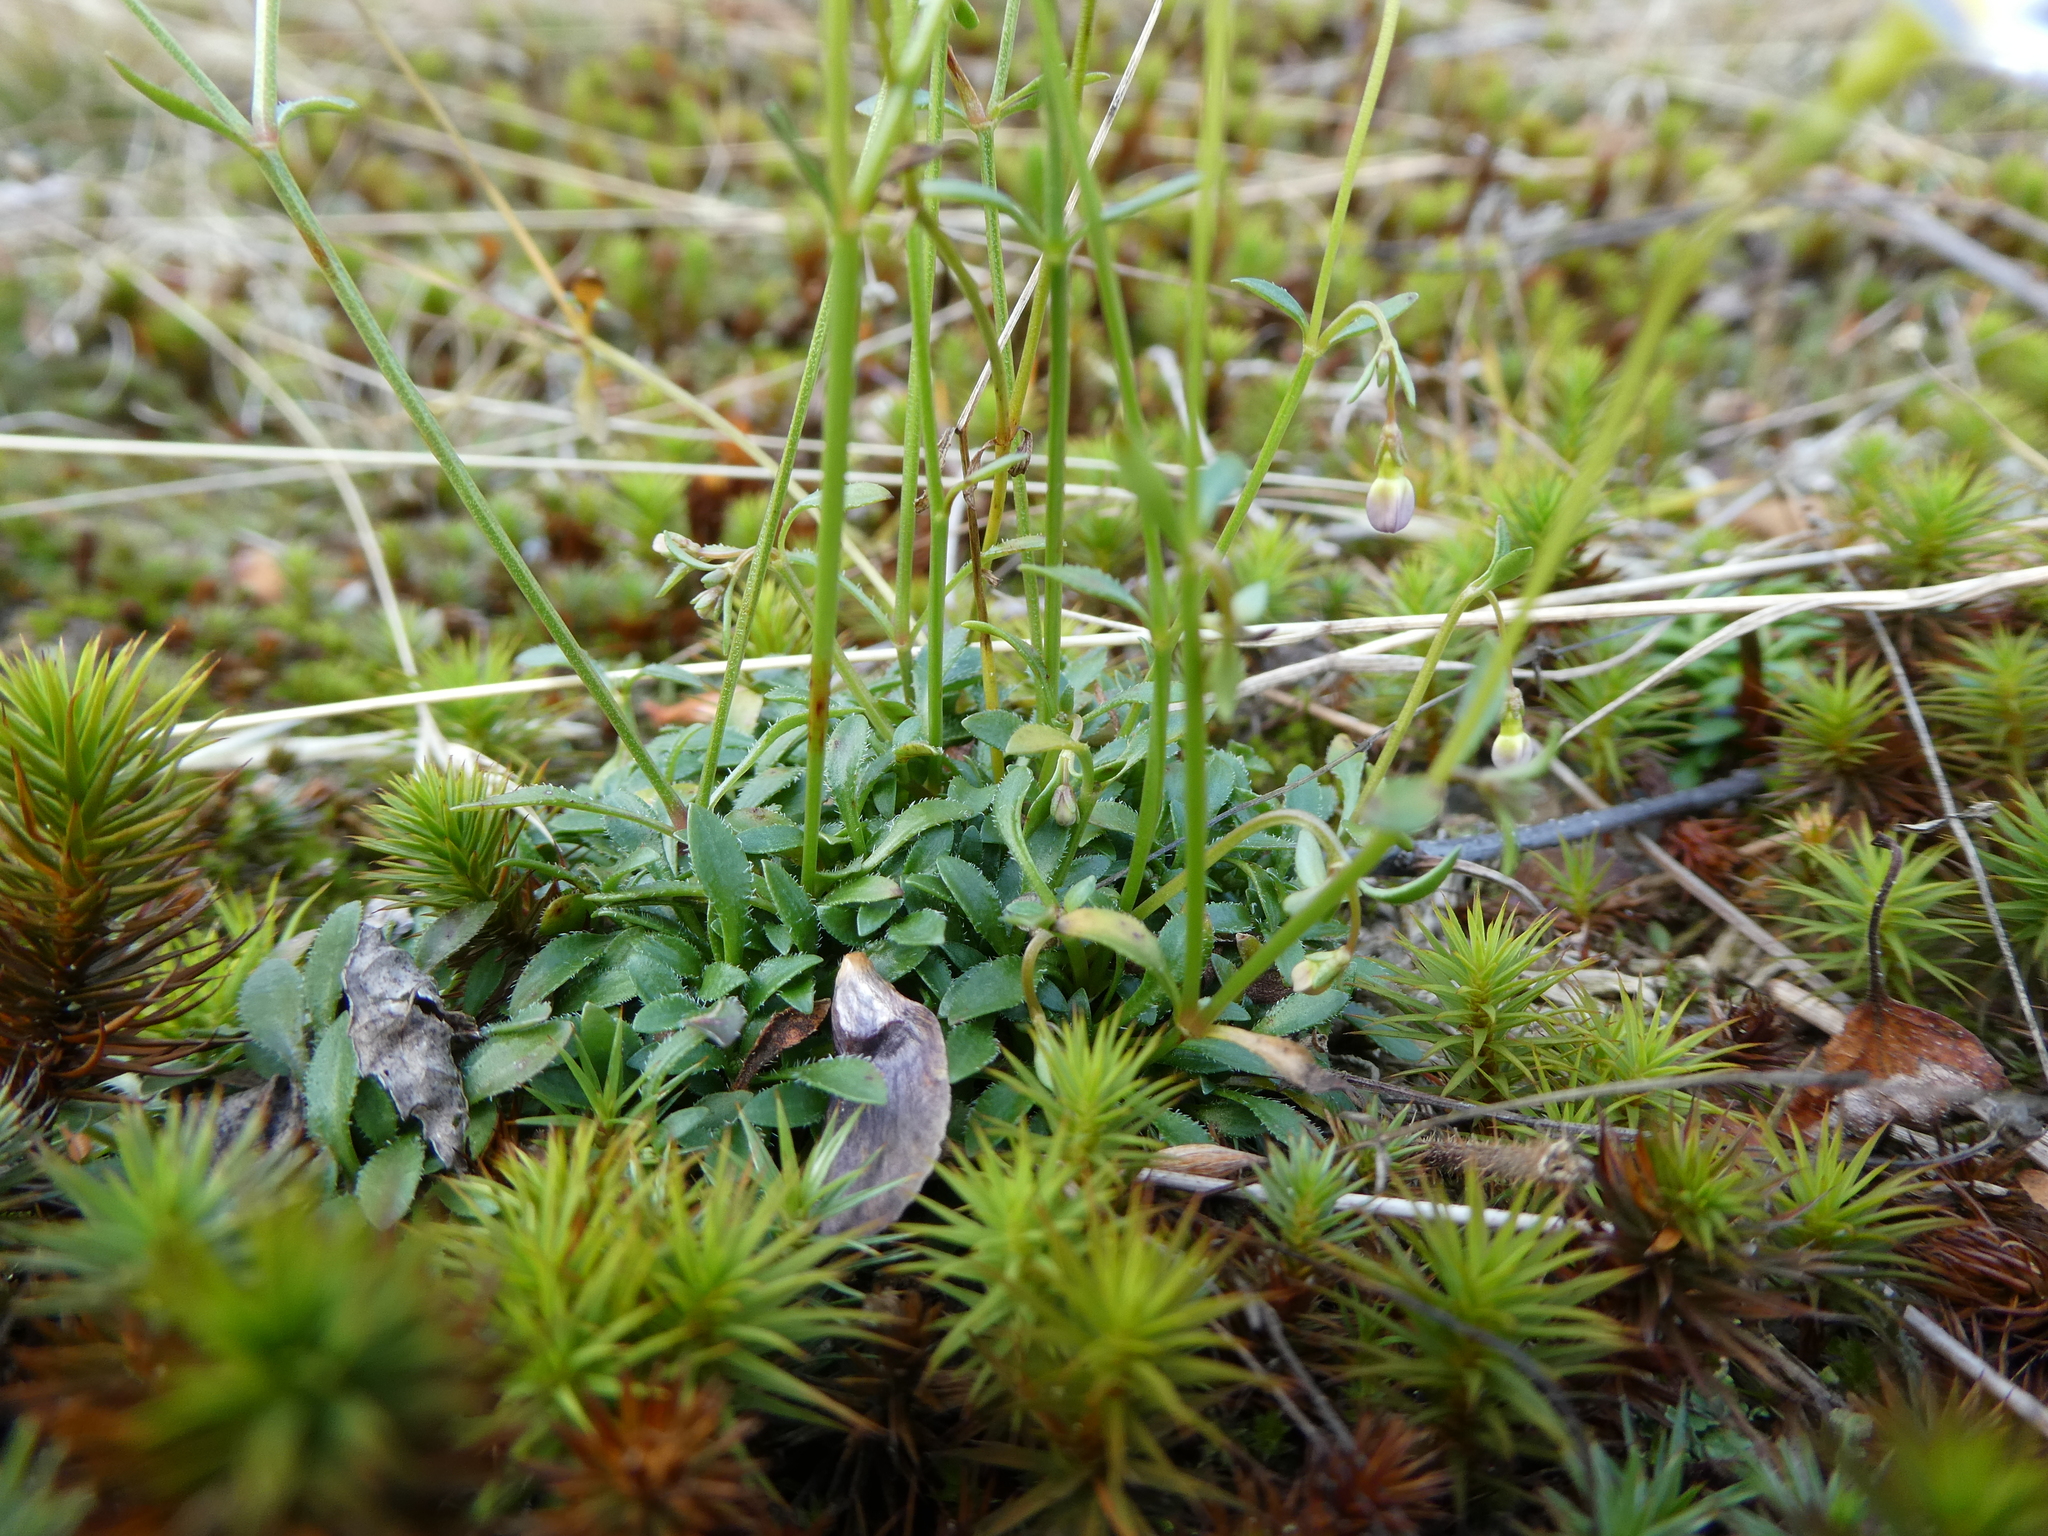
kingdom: Plantae
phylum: Tracheophyta
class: Magnoliopsida
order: Gentianales
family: Rubiaceae
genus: Houstonia
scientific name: Houstonia caerulea
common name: Bluets
